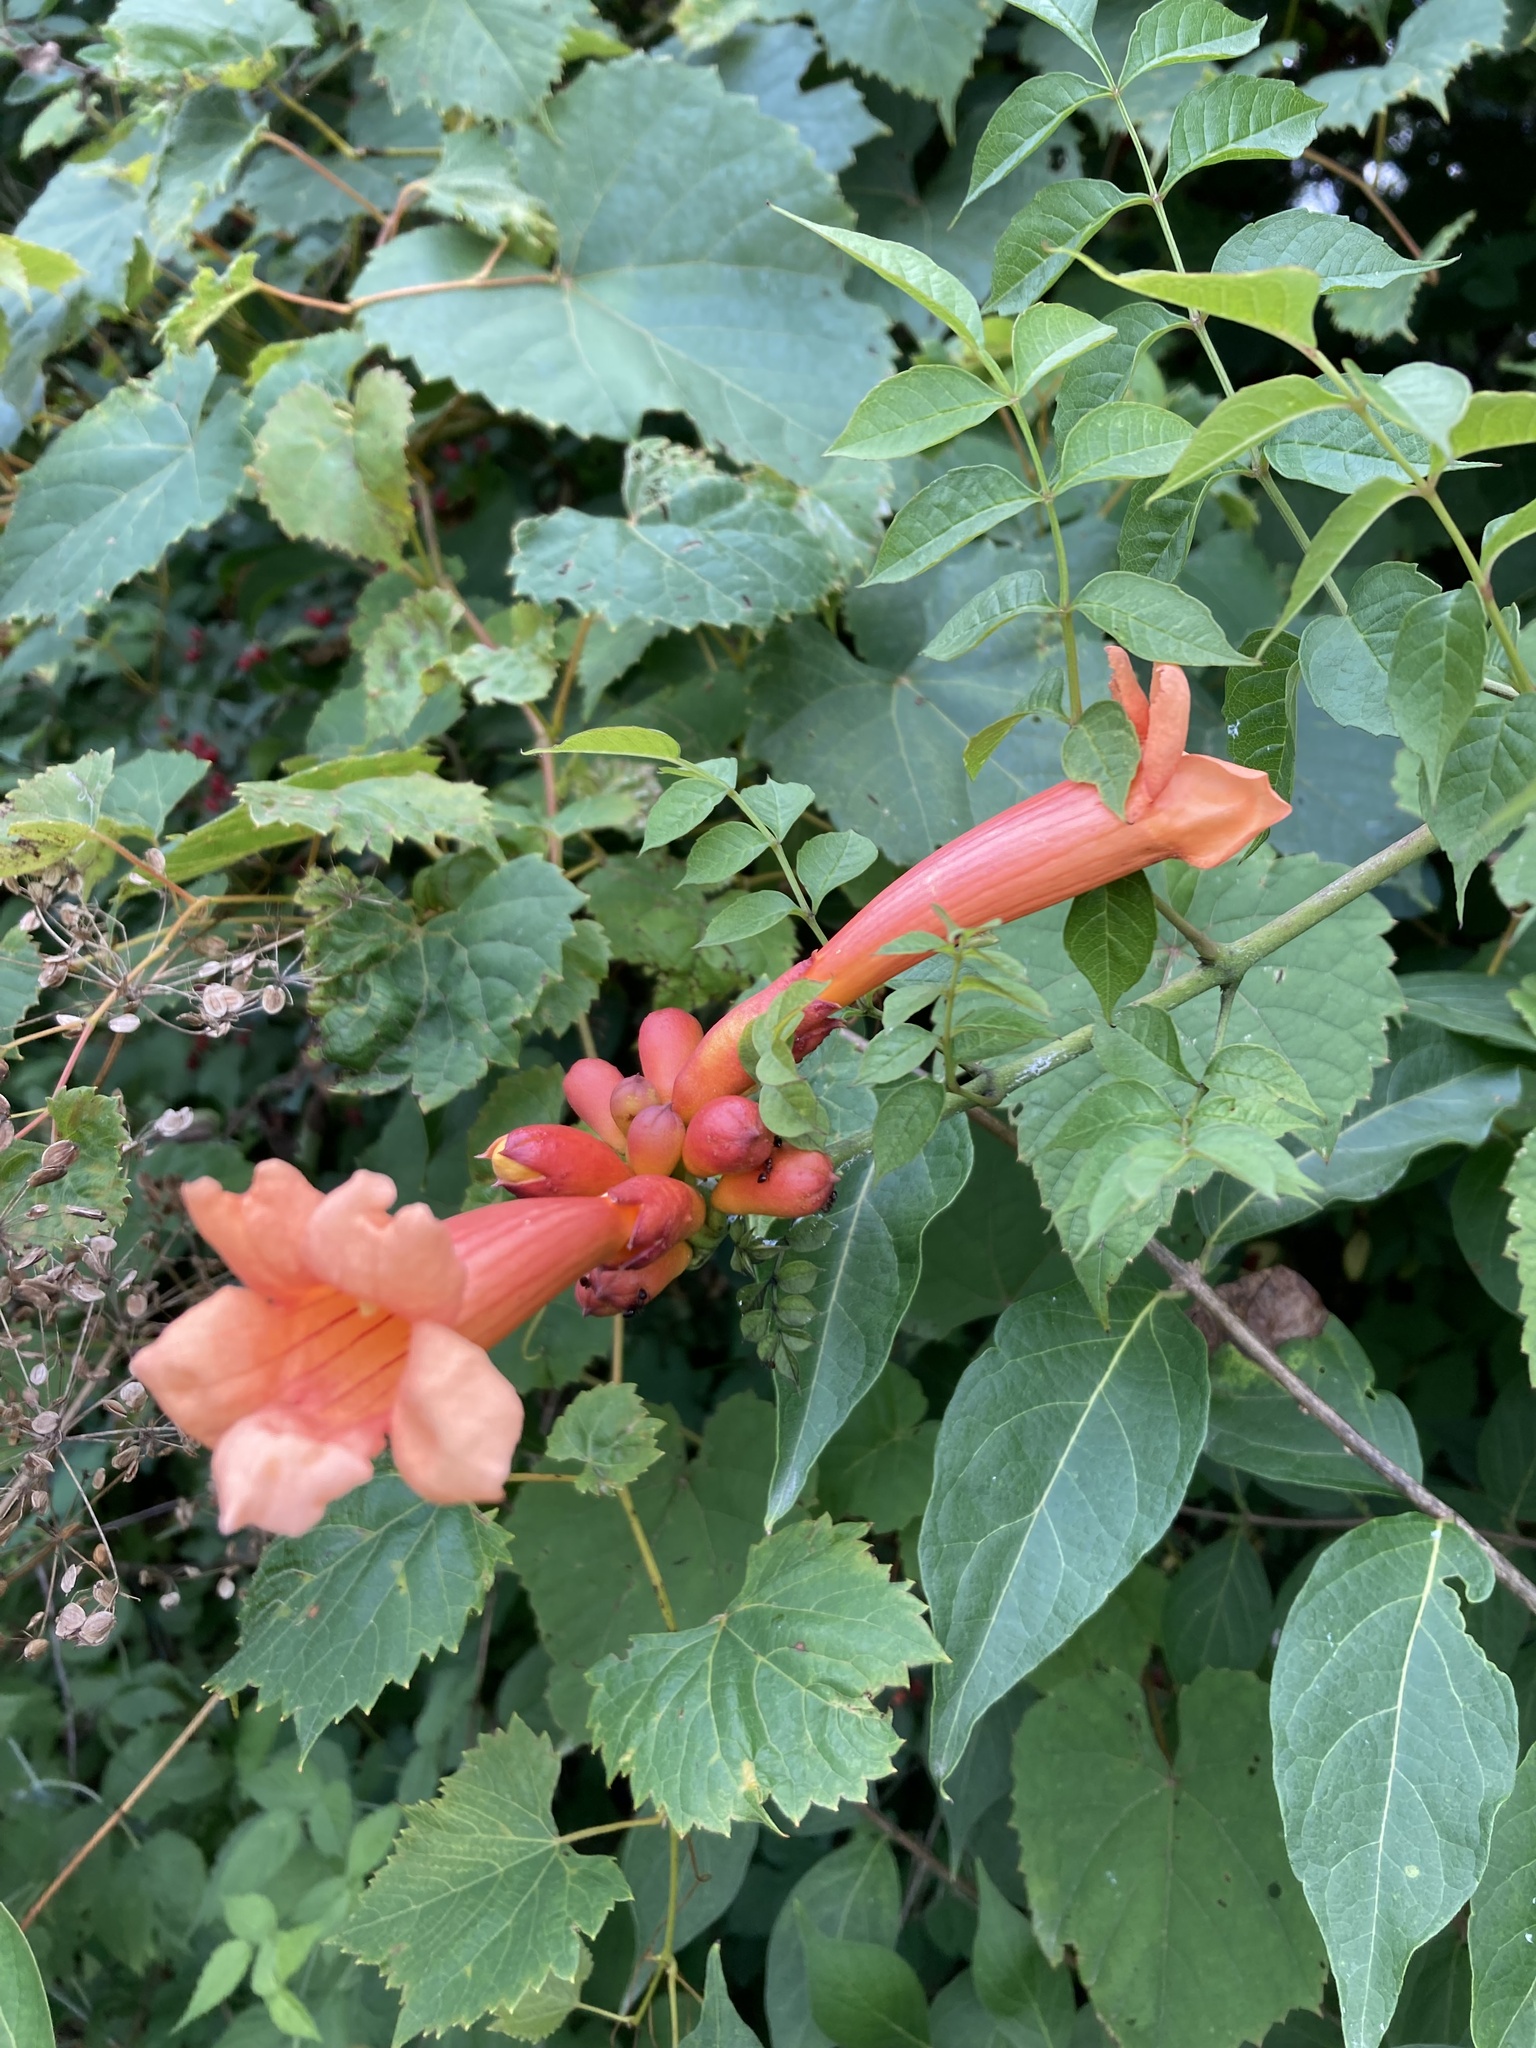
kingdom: Plantae
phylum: Tracheophyta
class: Magnoliopsida
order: Lamiales
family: Bignoniaceae
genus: Campsis
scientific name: Campsis radicans
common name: Trumpet-creeper
